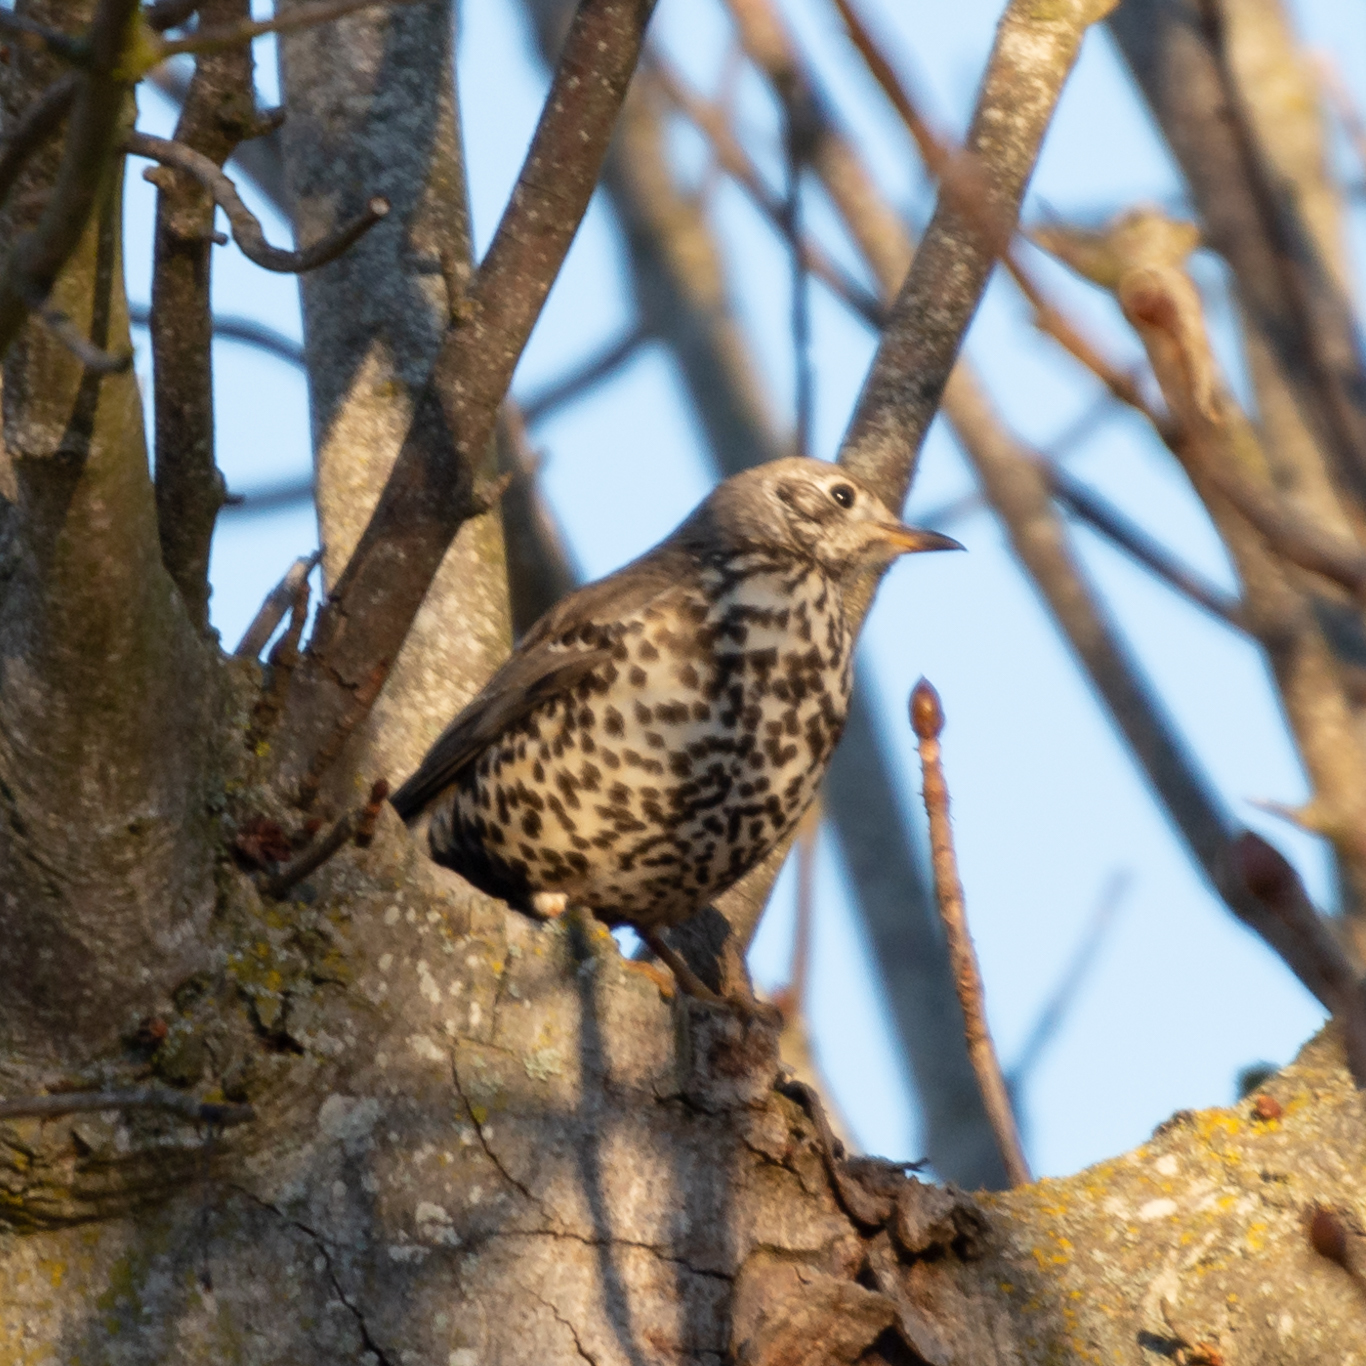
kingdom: Animalia
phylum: Chordata
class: Aves
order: Passeriformes
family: Turdidae
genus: Turdus
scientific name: Turdus viscivorus
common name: Mistle thrush
